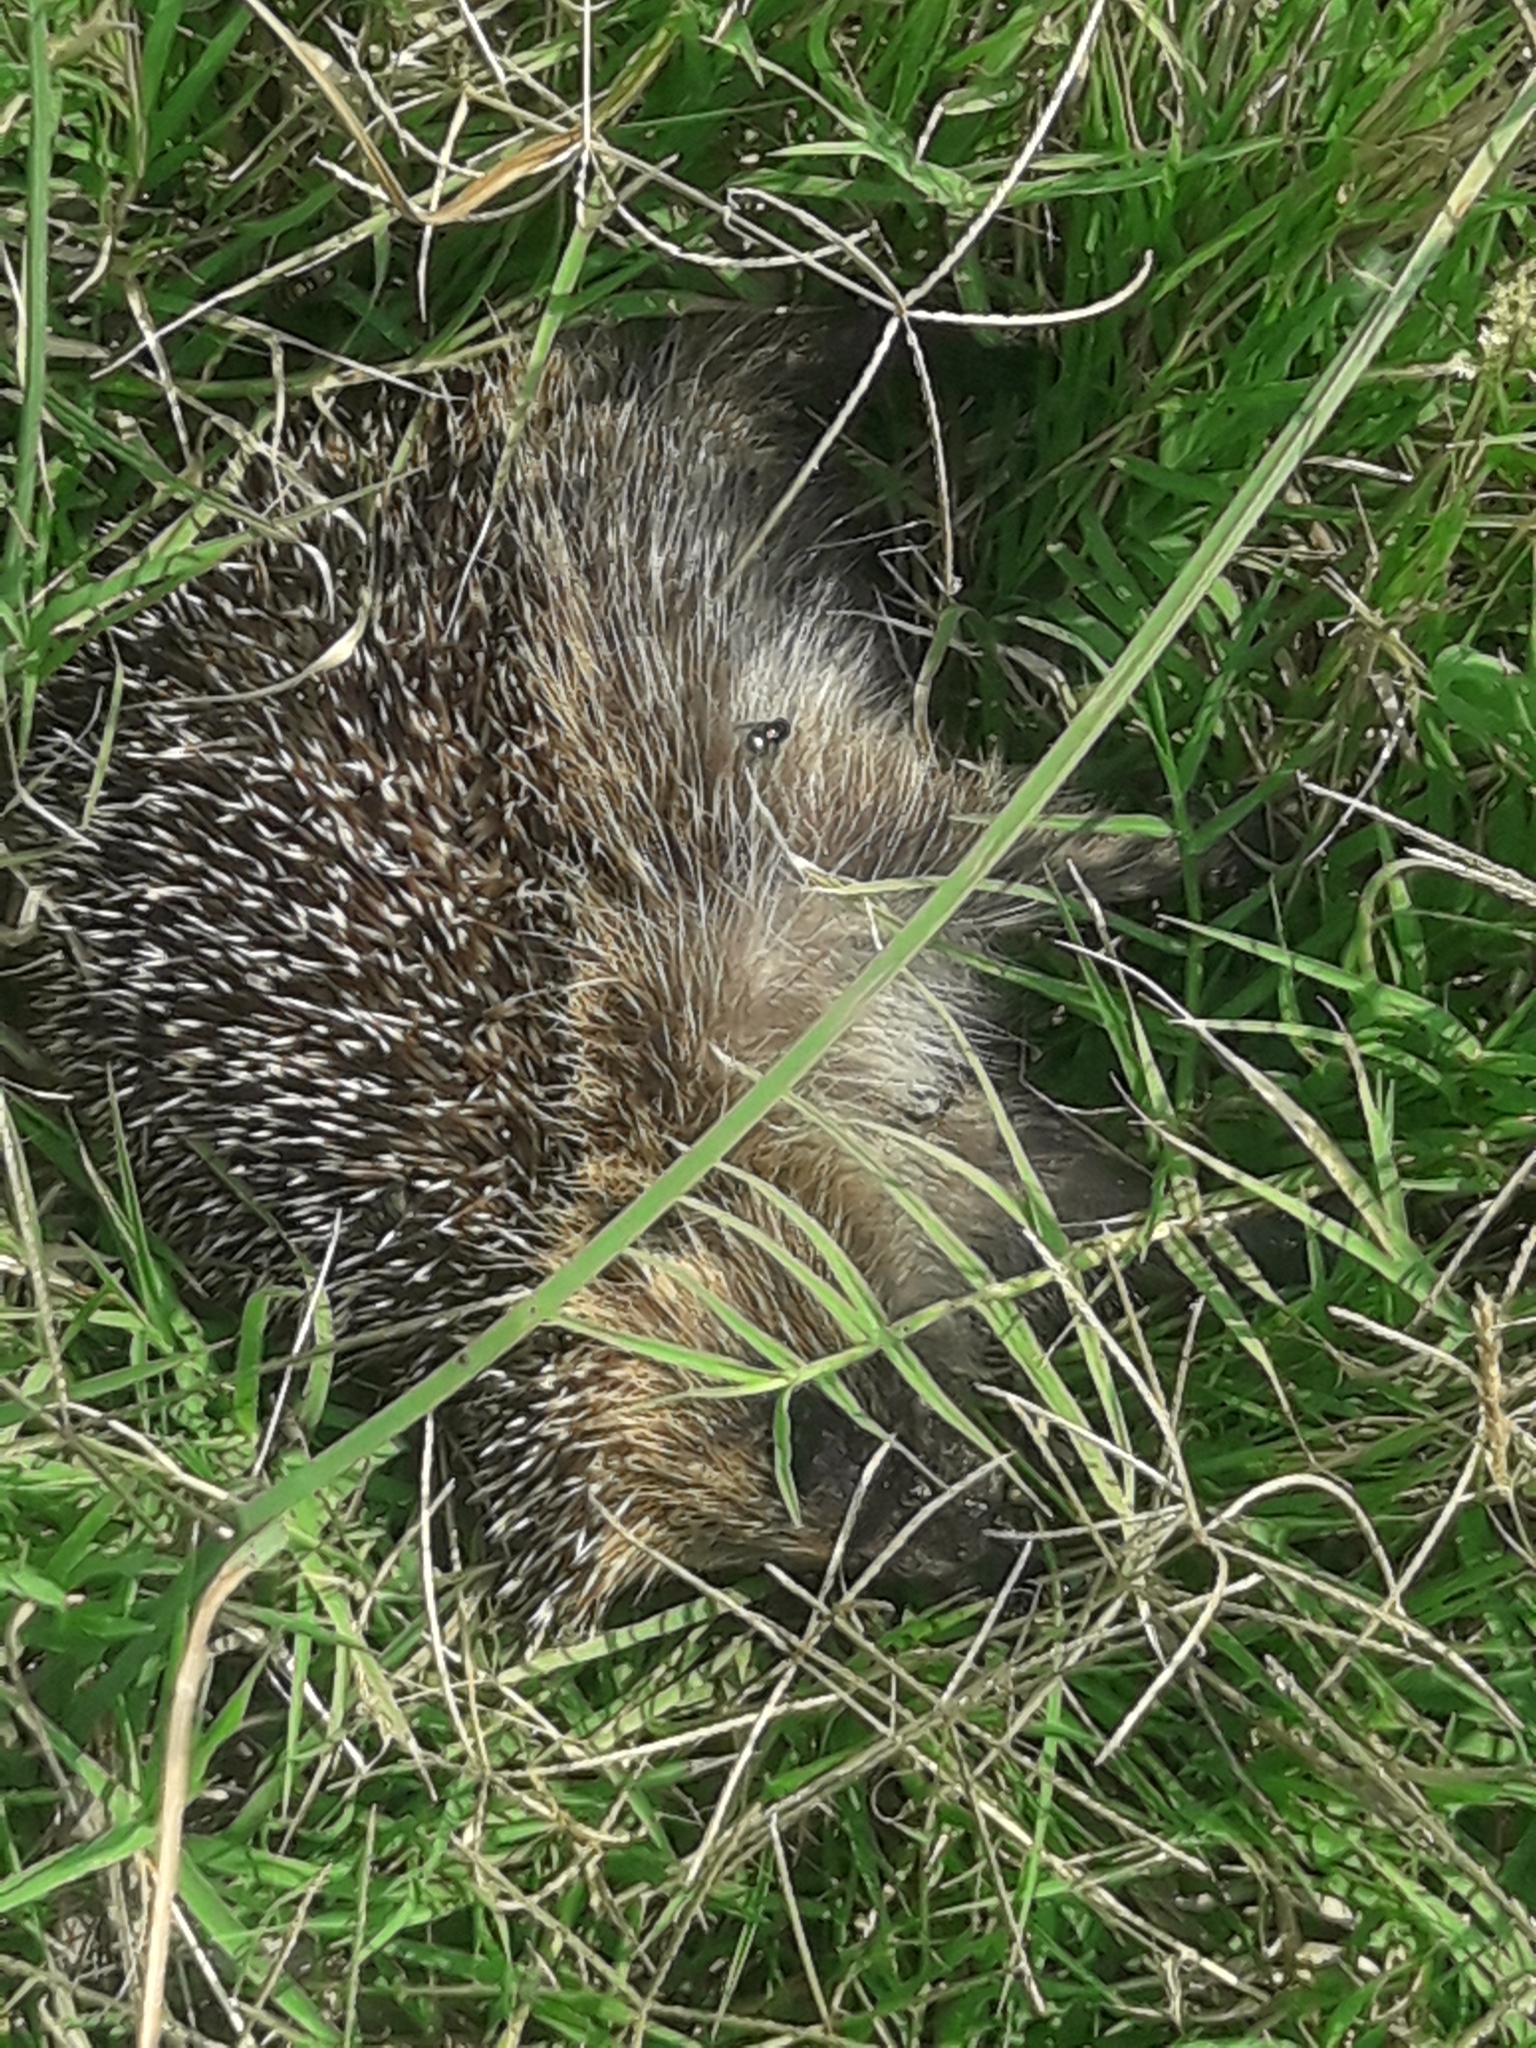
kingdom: Animalia
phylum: Chordata
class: Mammalia
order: Erinaceomorpha
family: Erinaceidae
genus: Erinaceus
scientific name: Erinaceus europaeus
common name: West european hedgehog
